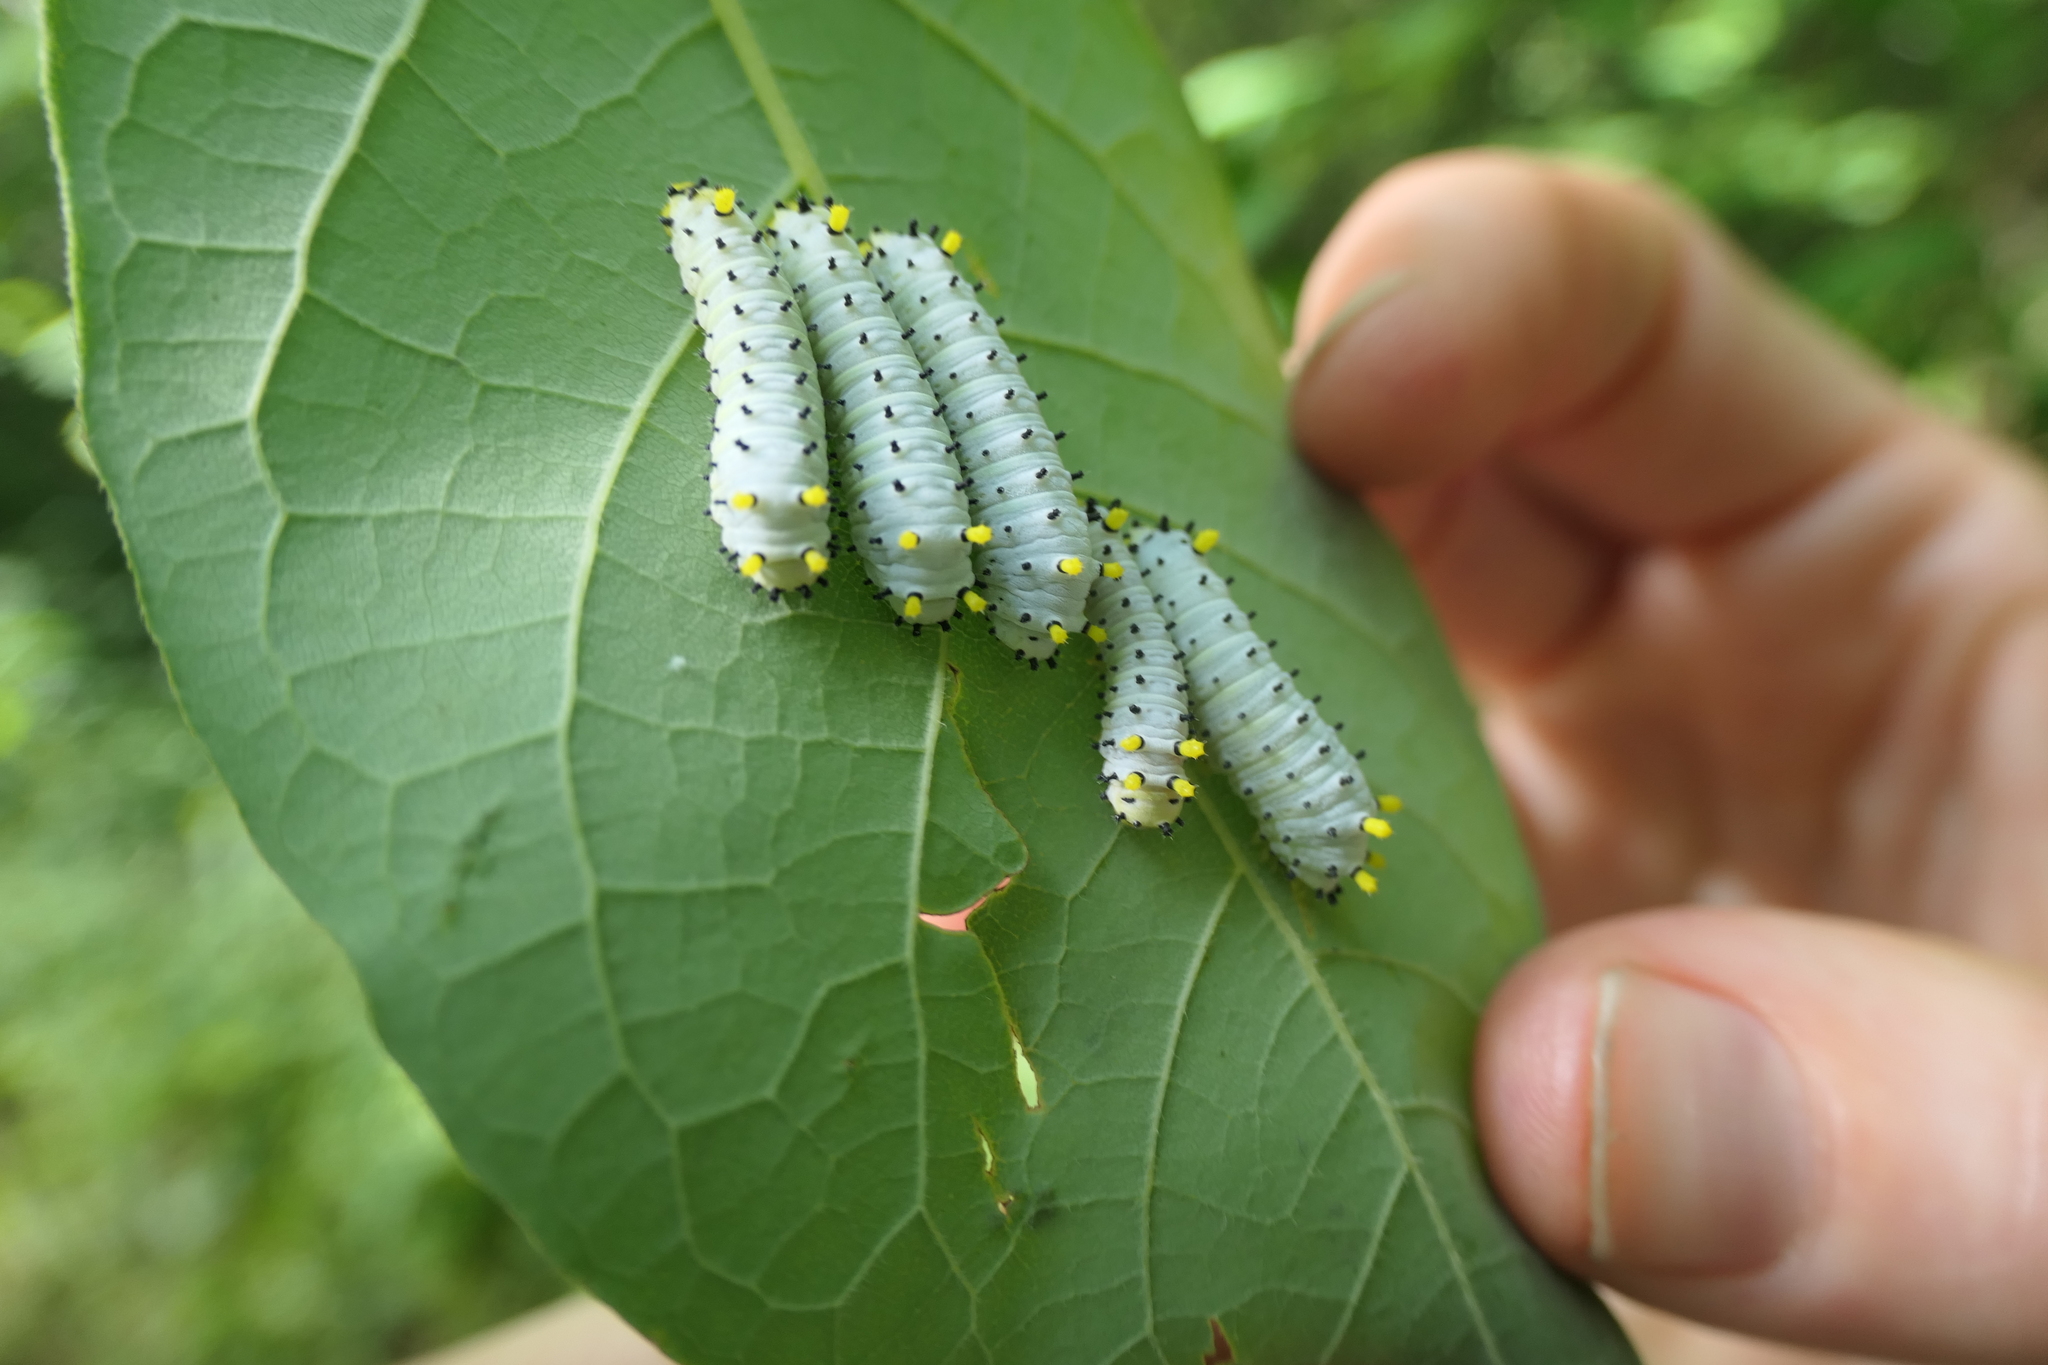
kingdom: Animalia
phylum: Arthropoda
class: Insecta
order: Lepidoptera
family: Saturniidae
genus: Callosamia
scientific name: Callosamia promethea
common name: Promethea silkmoth
